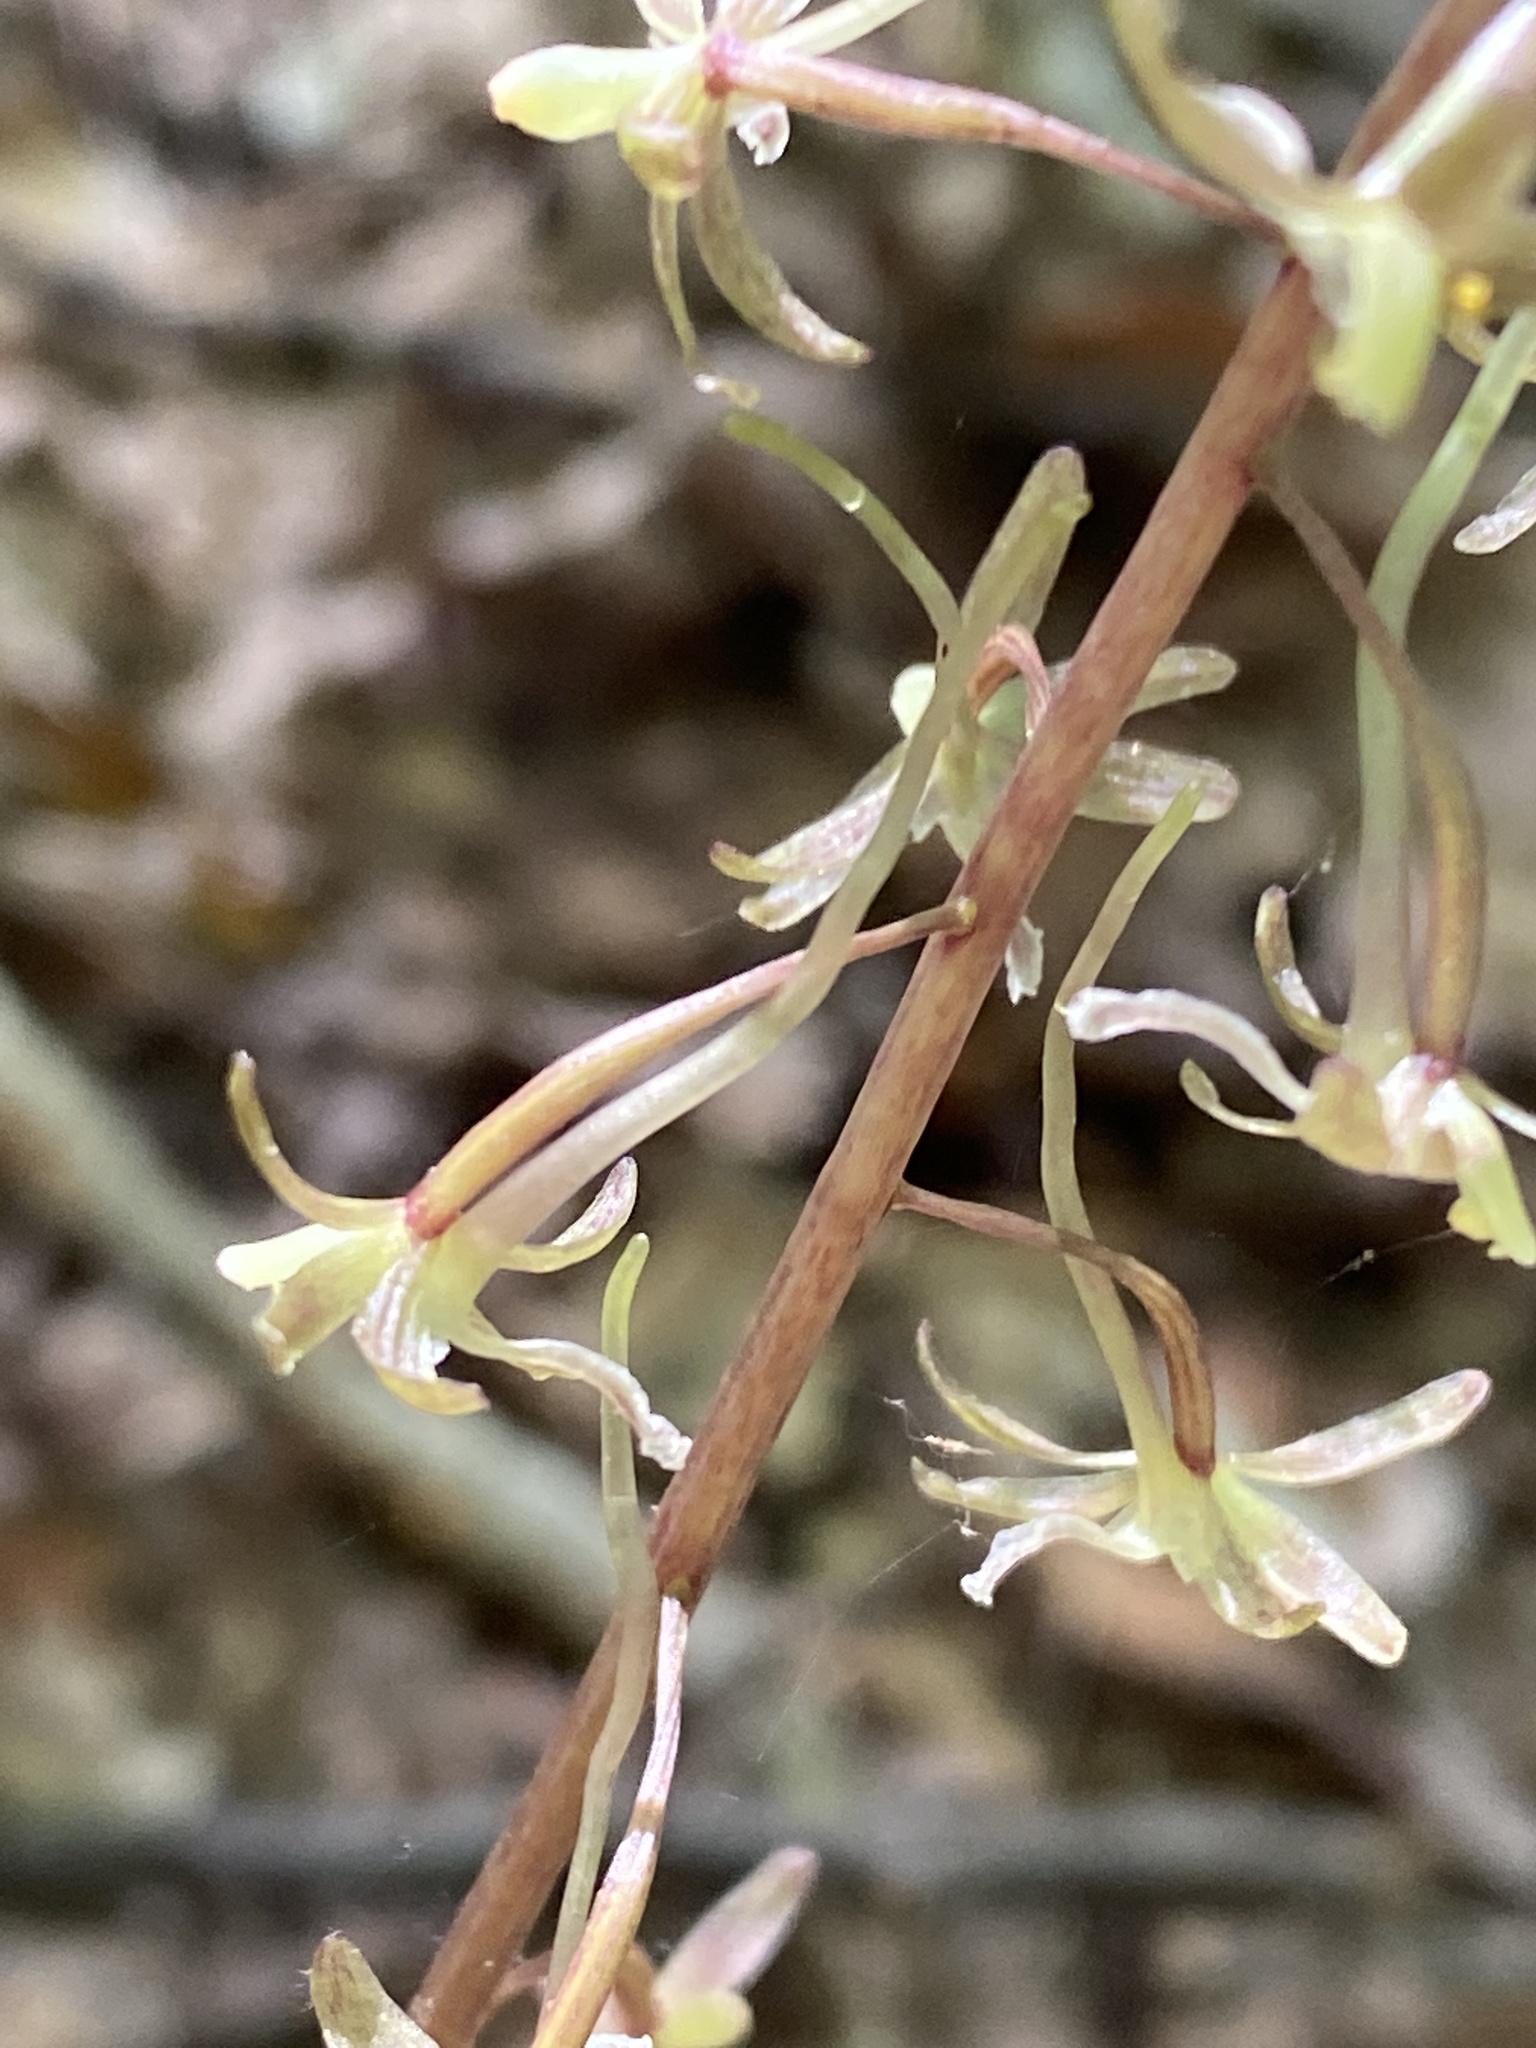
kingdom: Plantae
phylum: Tracheophyta
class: Liliopsida
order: Asparagales
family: Orchidaceae
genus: Tipularia
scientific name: Tipularia discolor
